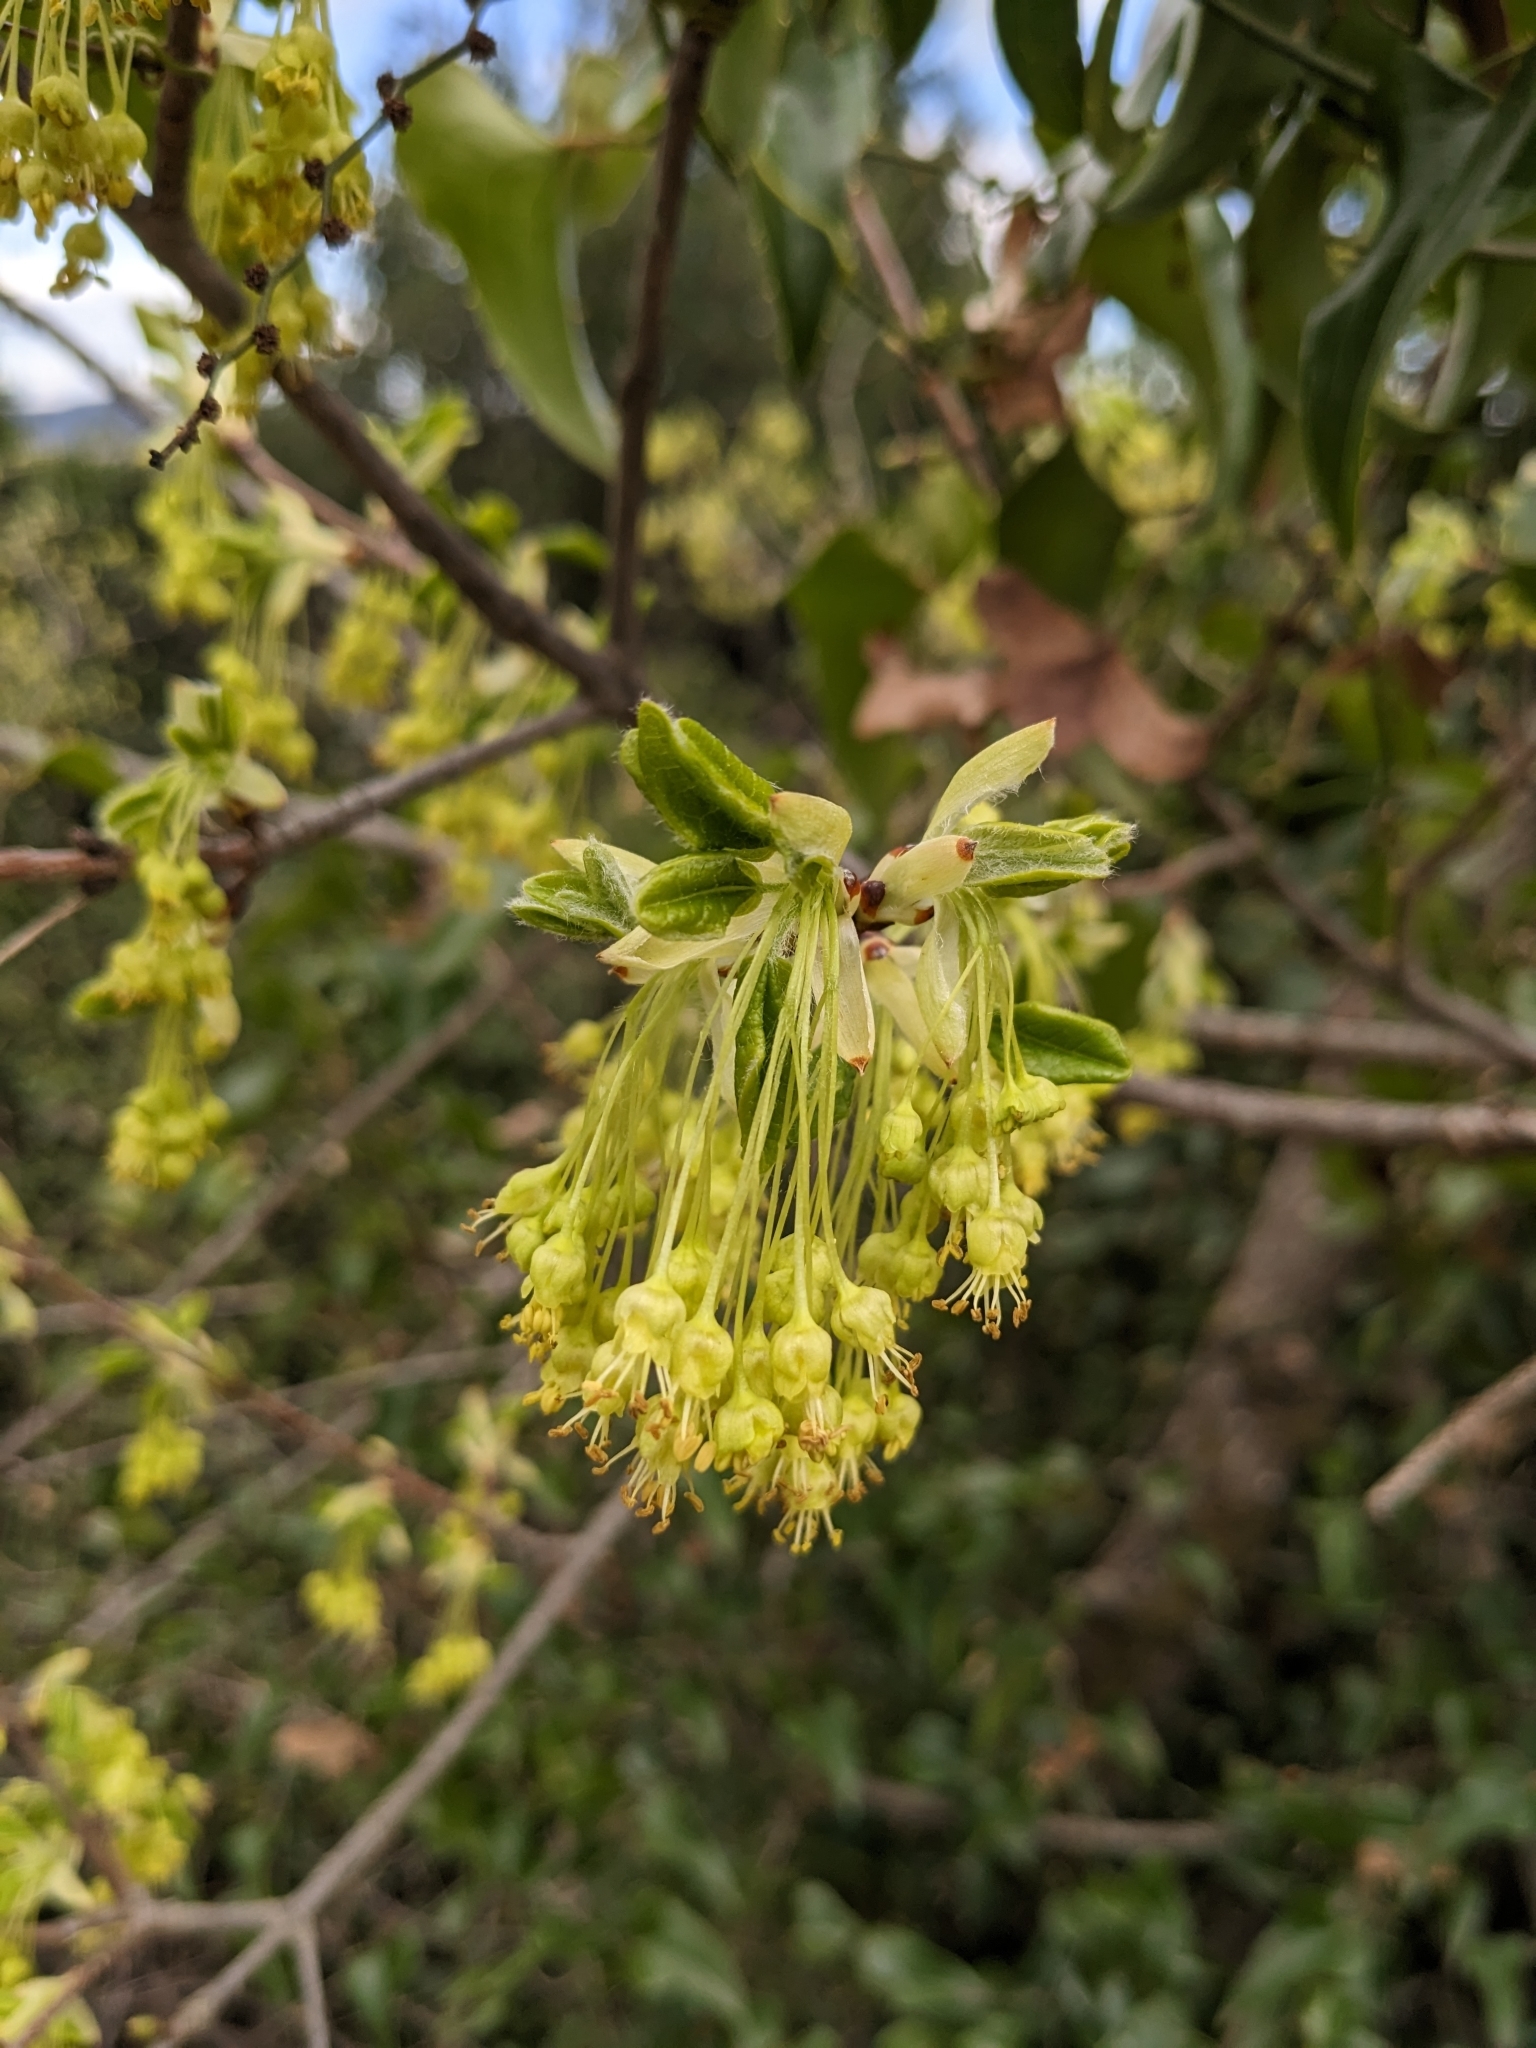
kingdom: Plantae
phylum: Tracheophyta
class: Magnoliopsida
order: Sapindales
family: Sapindaceae
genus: Acer
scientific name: Acer monspessulanum
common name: Montpellier maple
